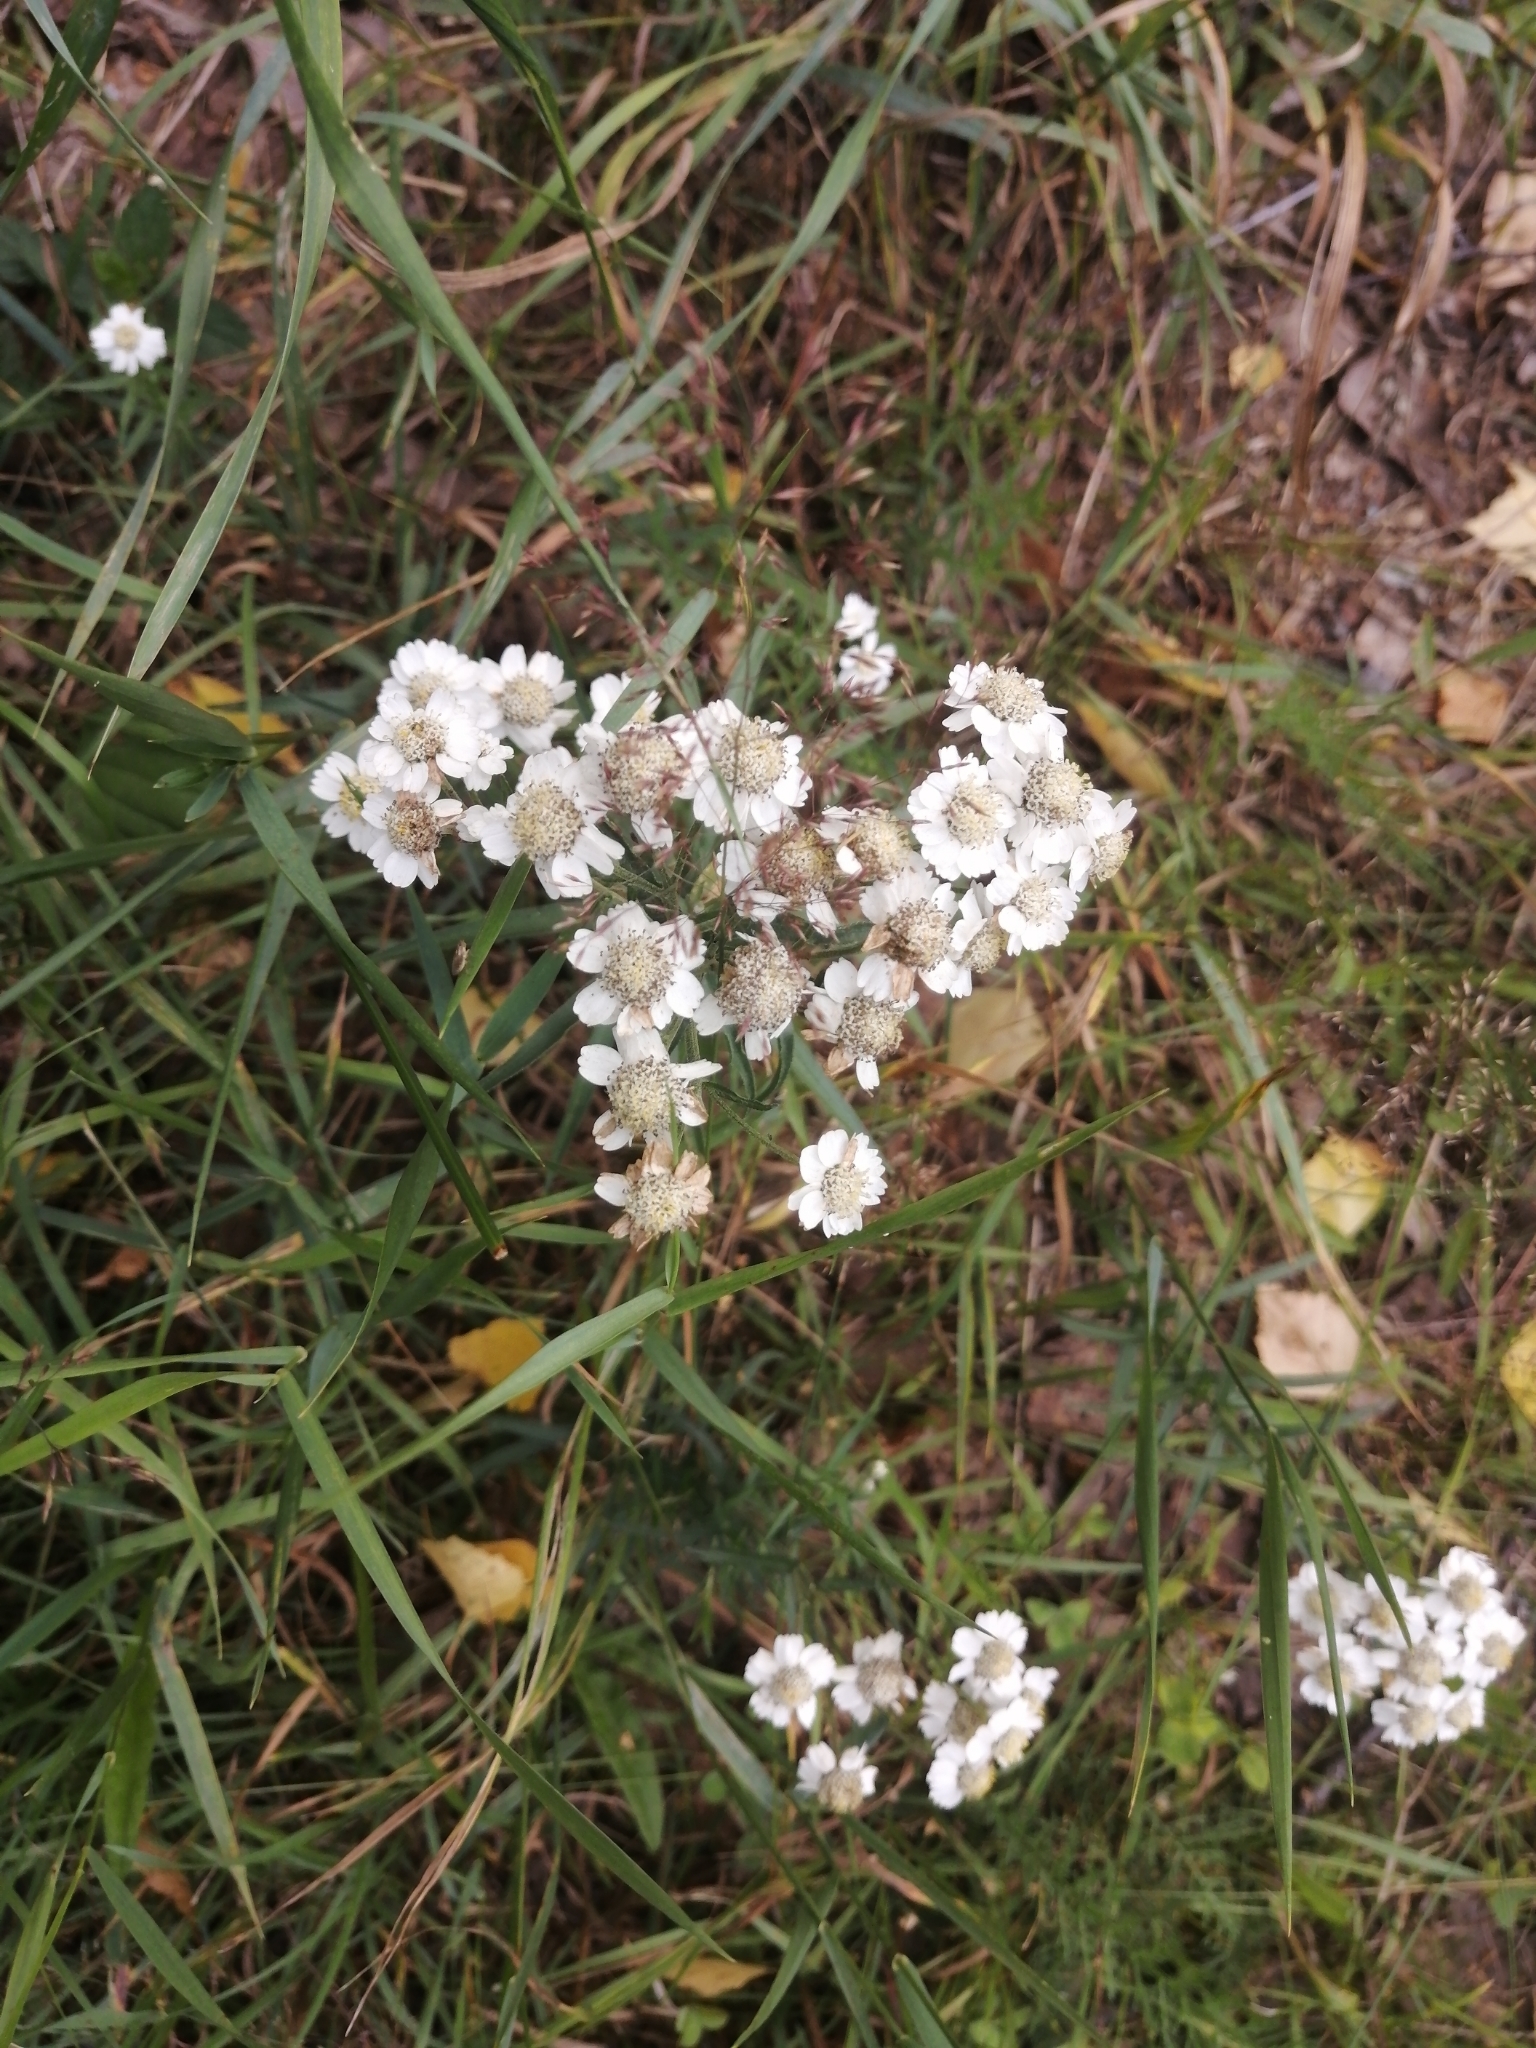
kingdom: Plantae
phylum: Tracheophyta
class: Magnoliopsida
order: Asterales
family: Asteraceae
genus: Achillea
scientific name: Achillea ptarmica
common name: Sneezeweed
